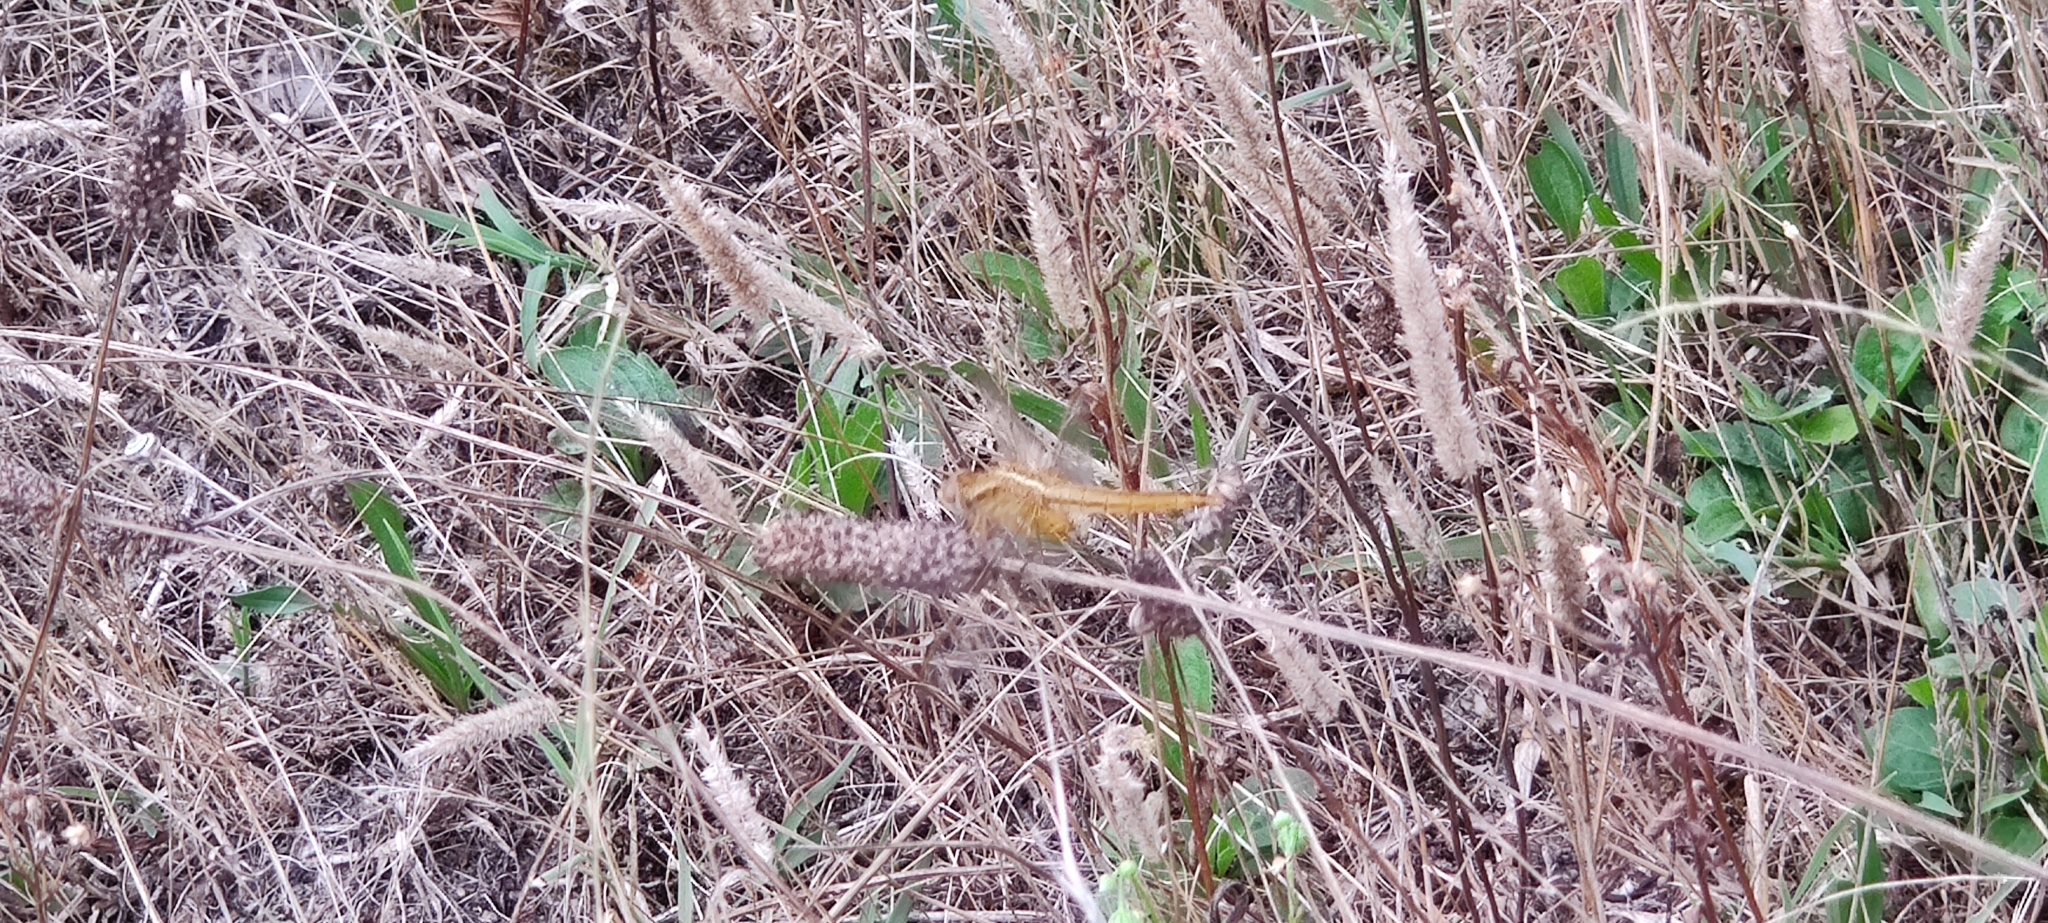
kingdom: Animalia
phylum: Arthropoda
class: Insecta
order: Odonata
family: Libellulidae
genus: Crocothemis
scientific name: Crocothemis erythraea
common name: Scarlet dragonfly
